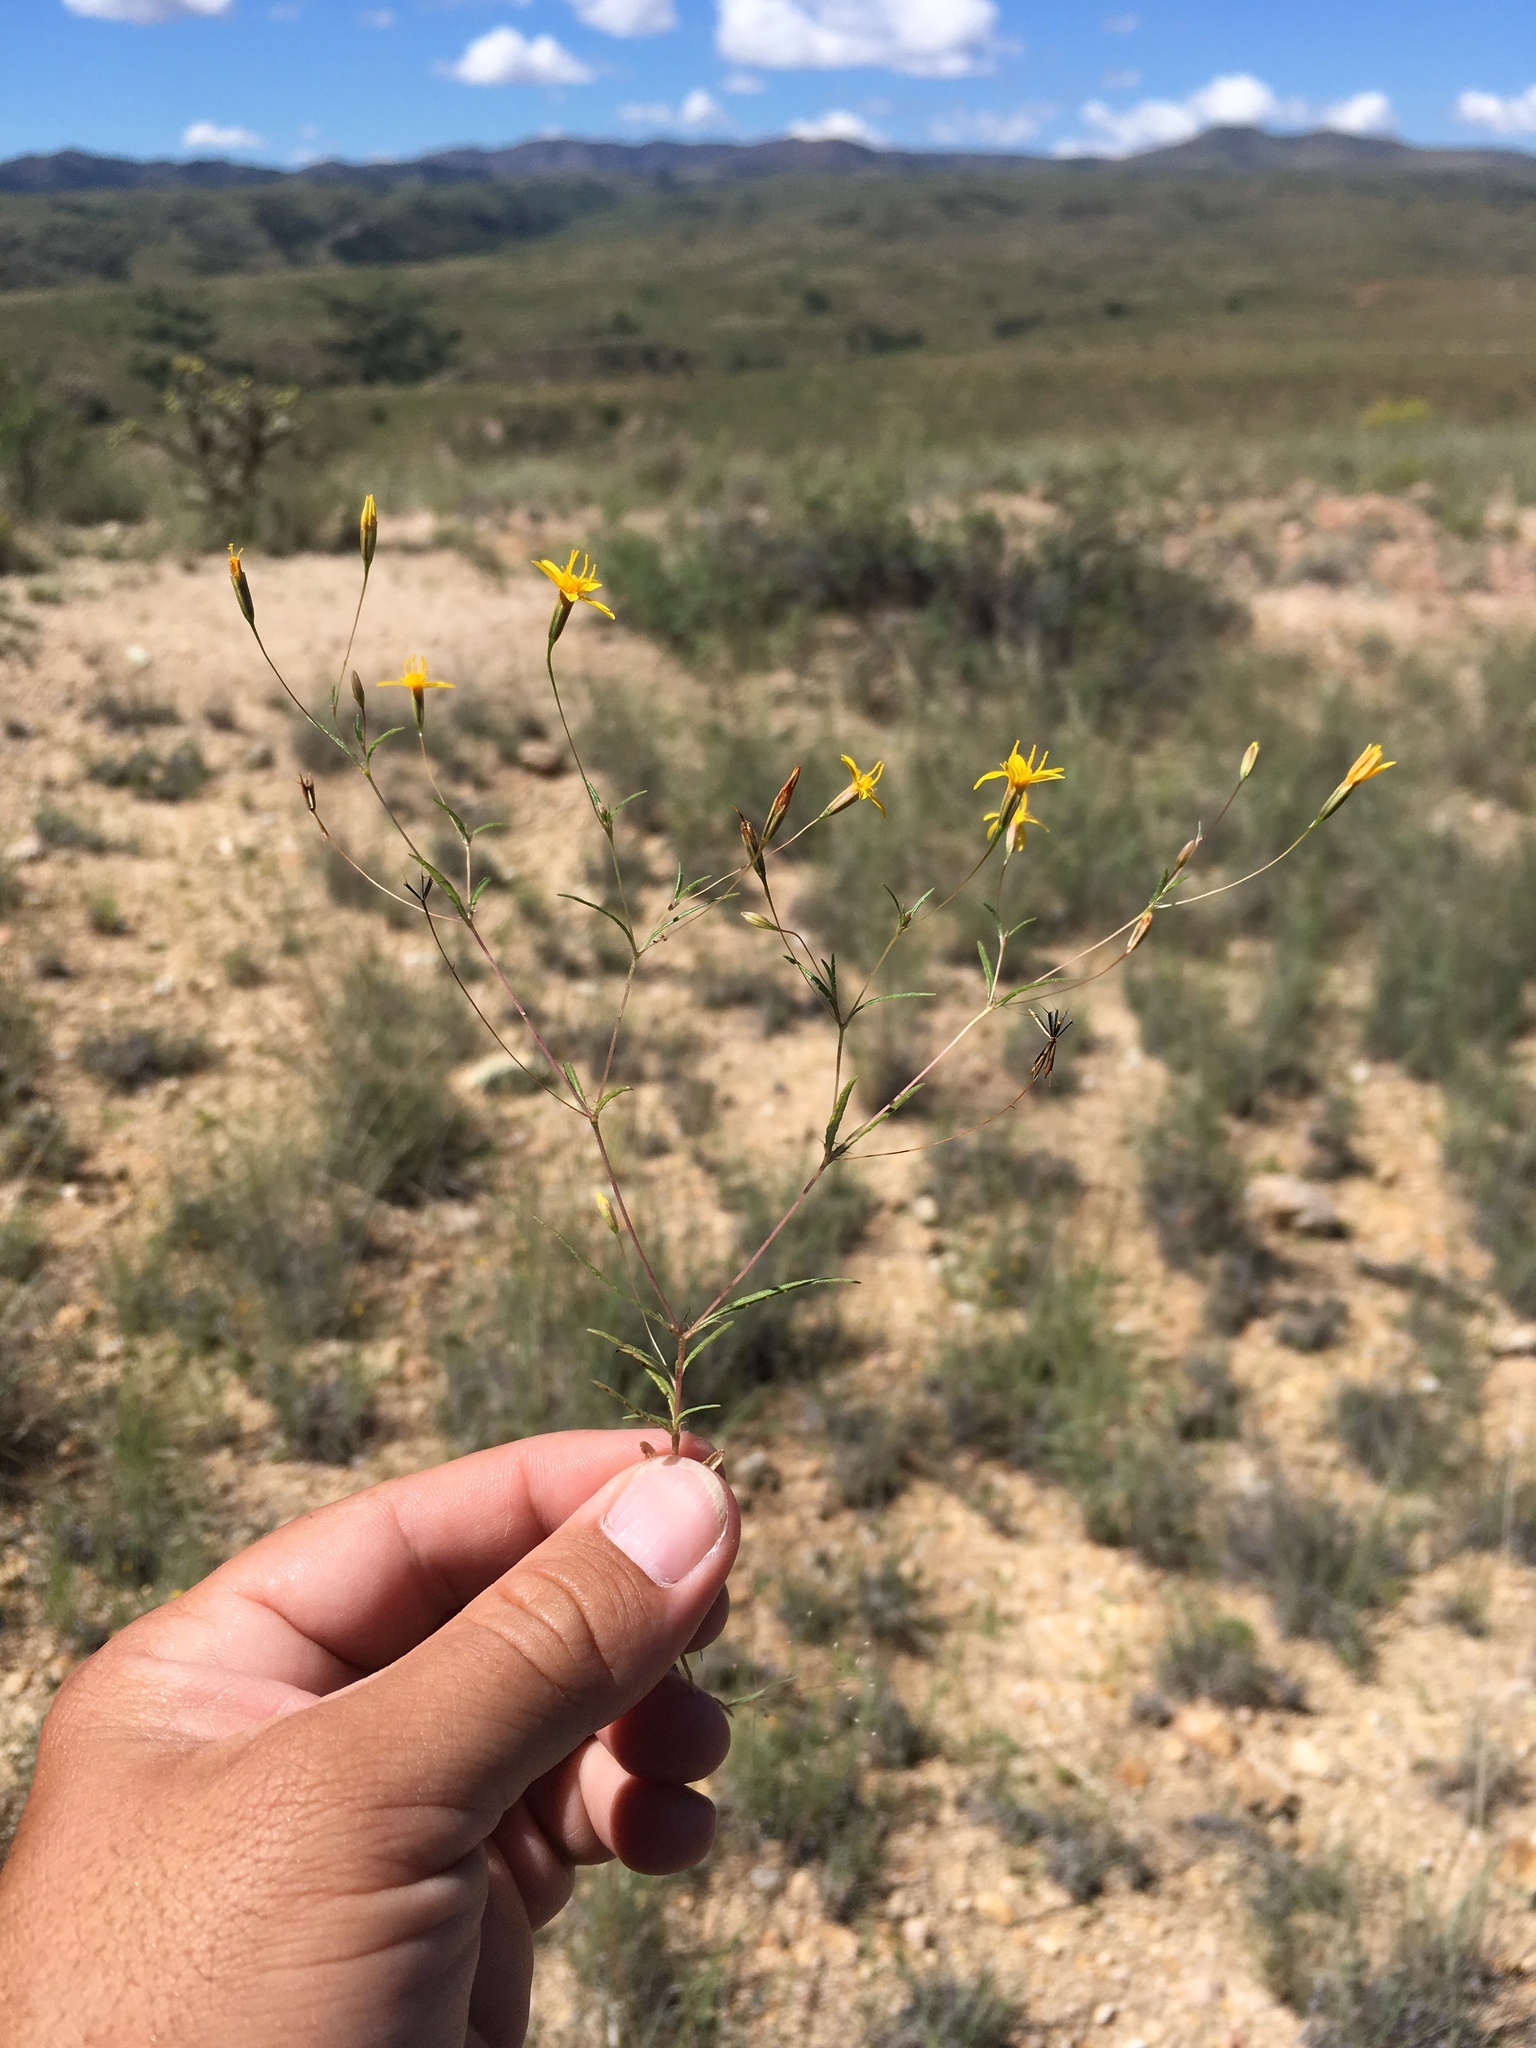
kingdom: Plantae
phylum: Tracheophyta
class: Magnoliopsida
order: Asterales
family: Asteraceae
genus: Pectis
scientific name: Pectis filipes
